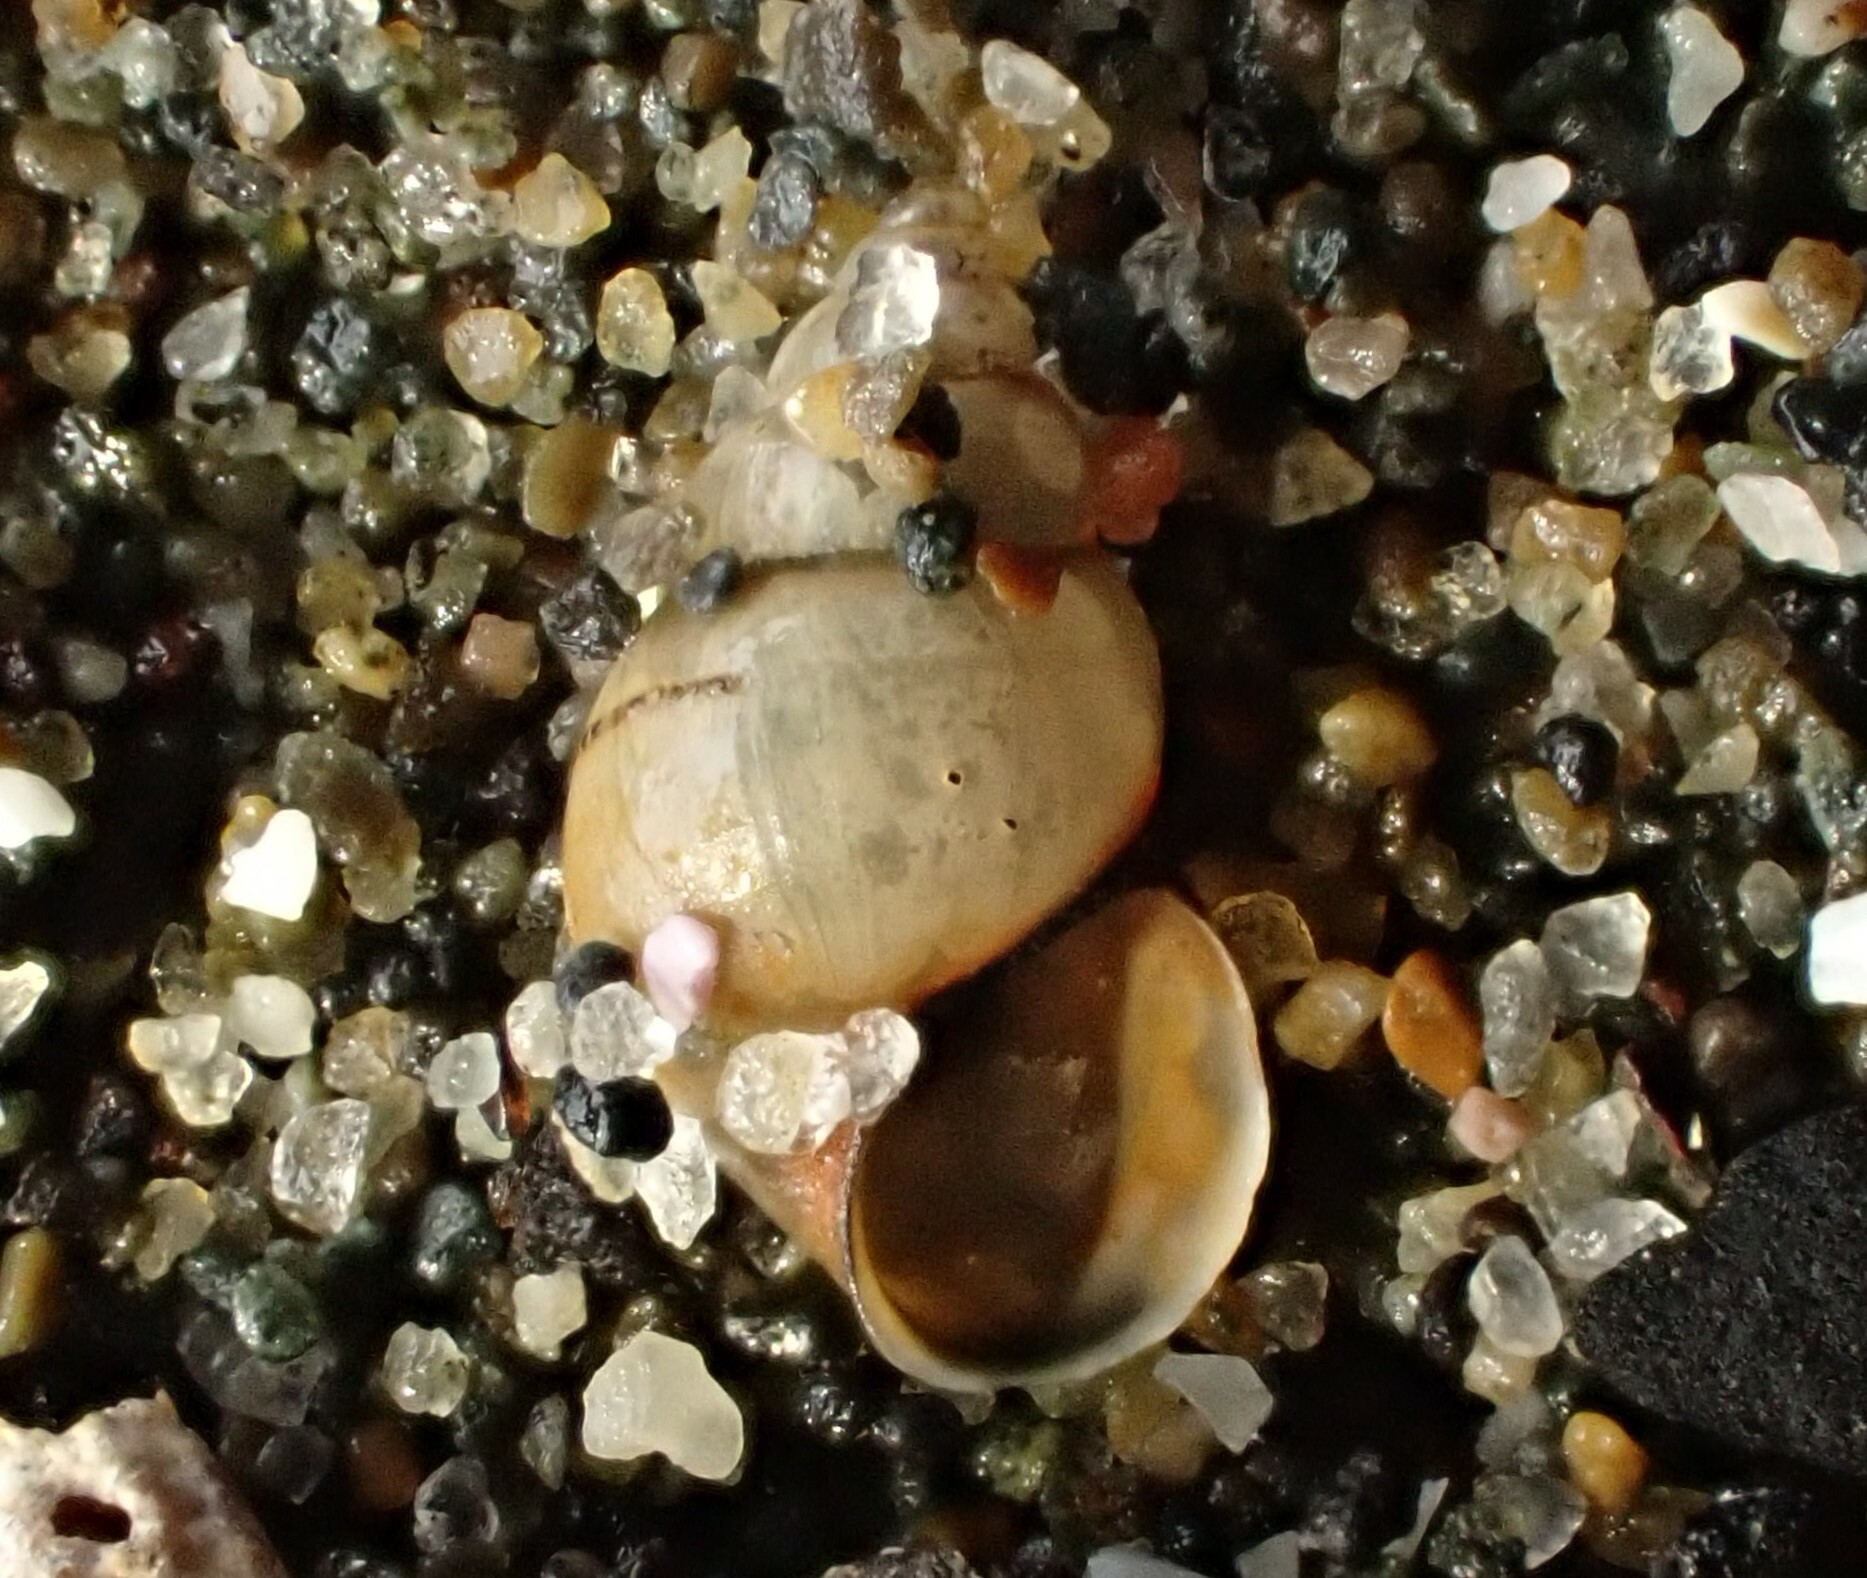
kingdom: Animalia
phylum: Mollusca
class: Gastropoda
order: Littorinimorpha
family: Tateidae
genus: Potamopyrgus
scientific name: Potamopyrgus antipodarum
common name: Jenkins' spire snail
